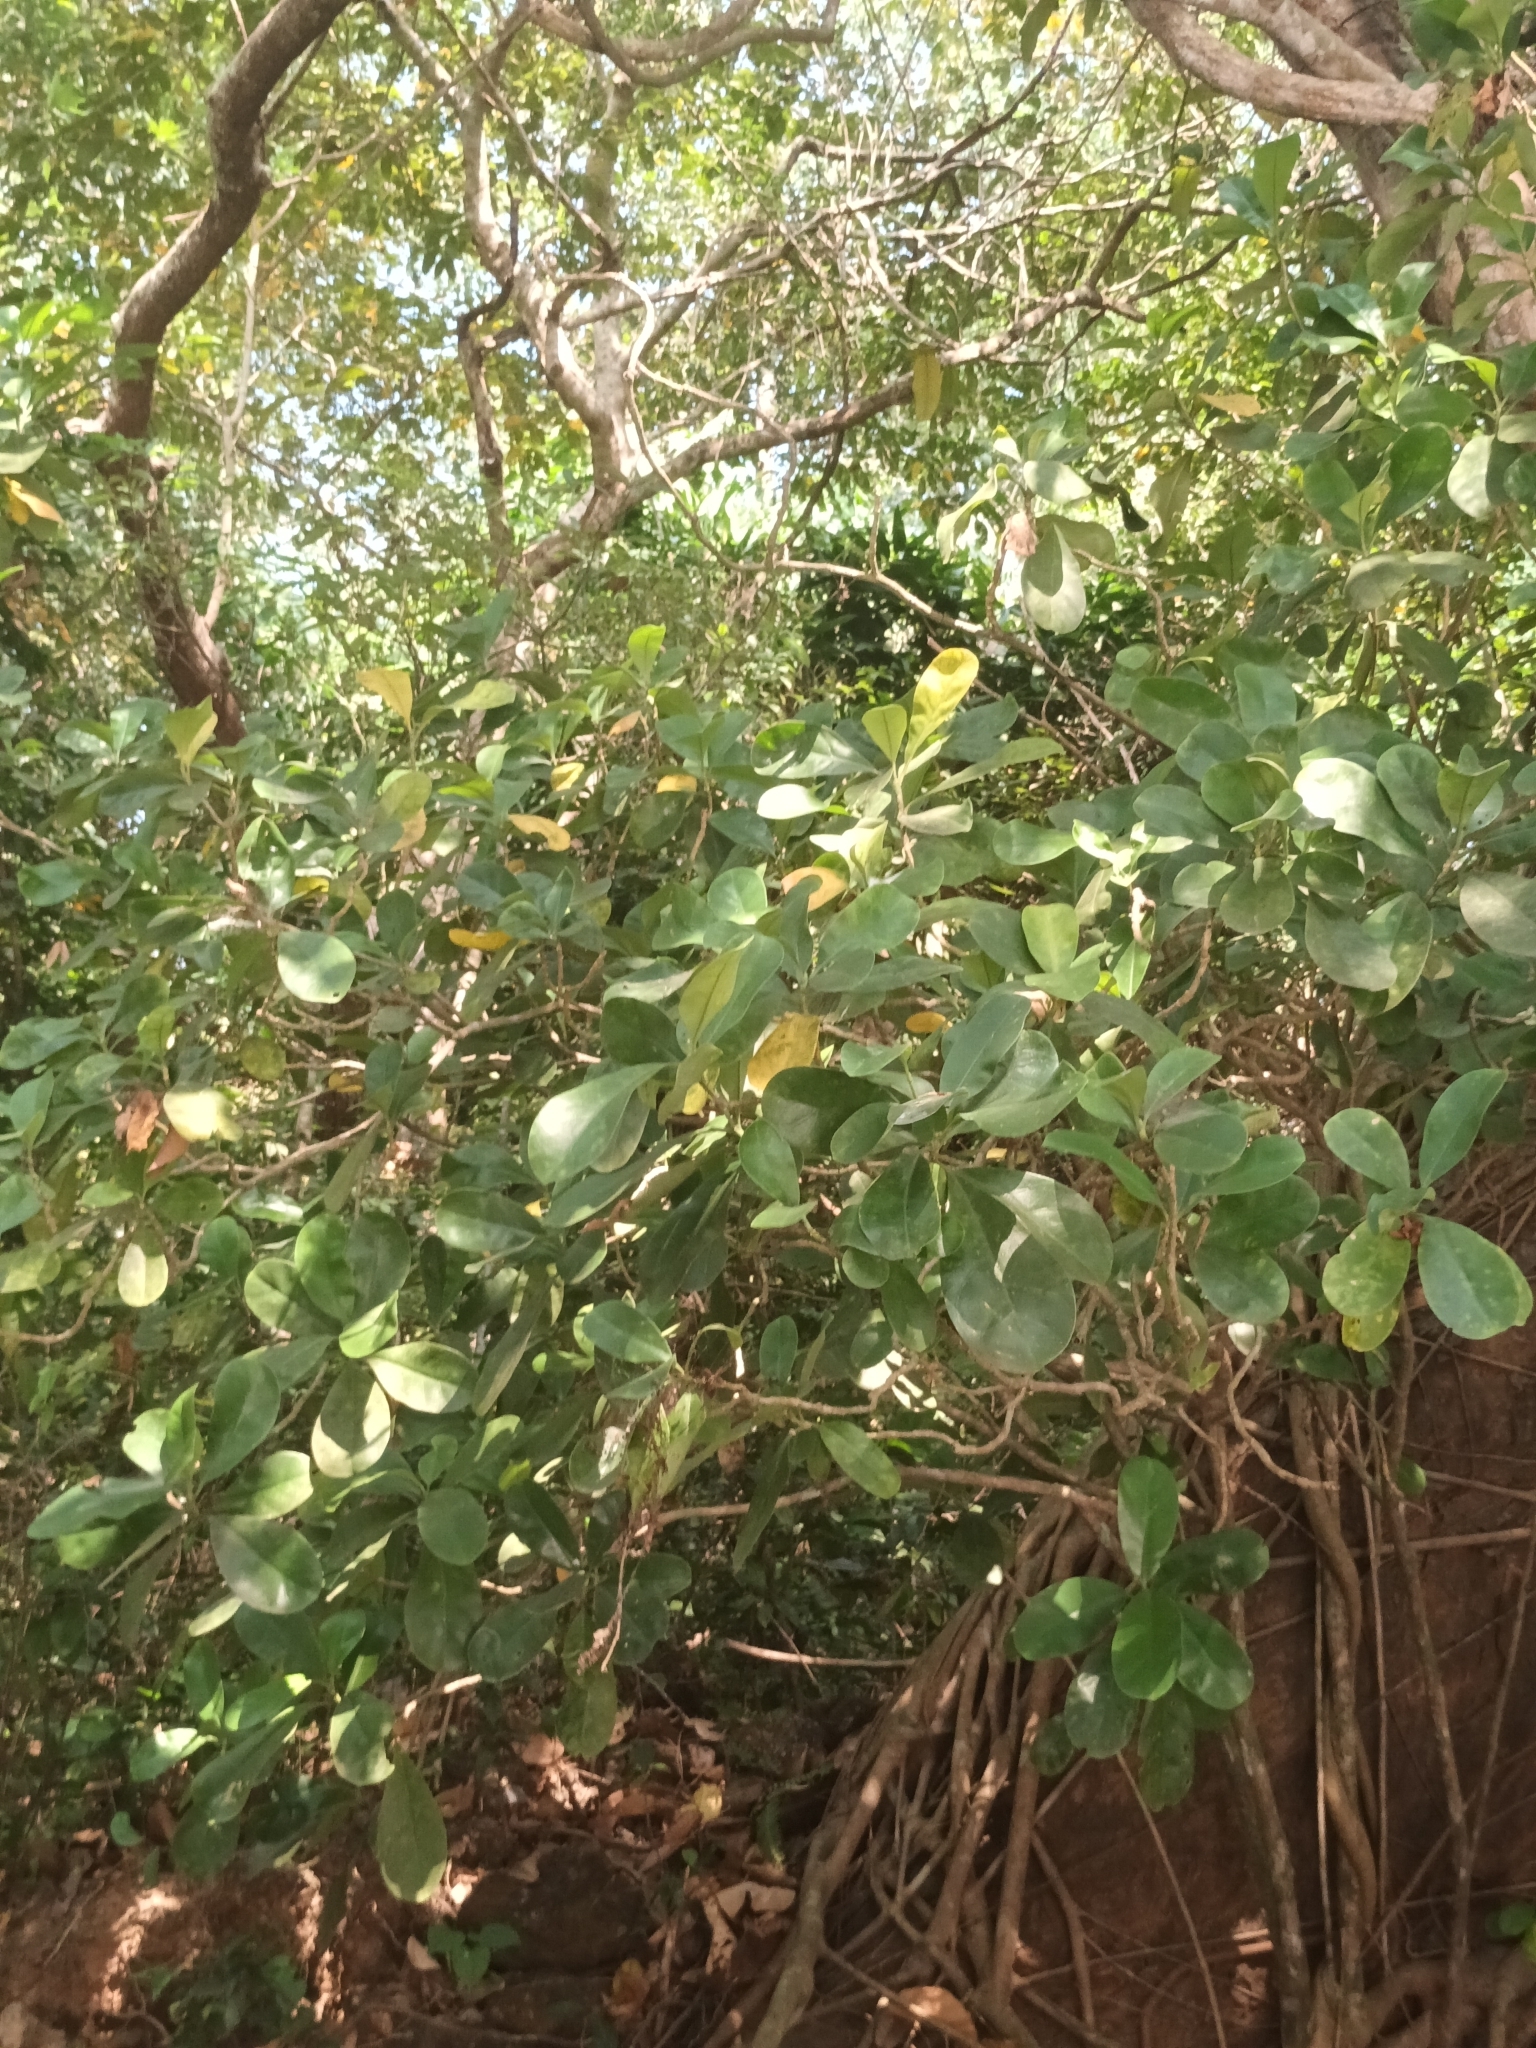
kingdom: Plantae
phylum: Tracheophyta
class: Magnoliopsida
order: Gentianales
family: Gentianaceae
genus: Fagraea
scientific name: Fagraea ceilanica
